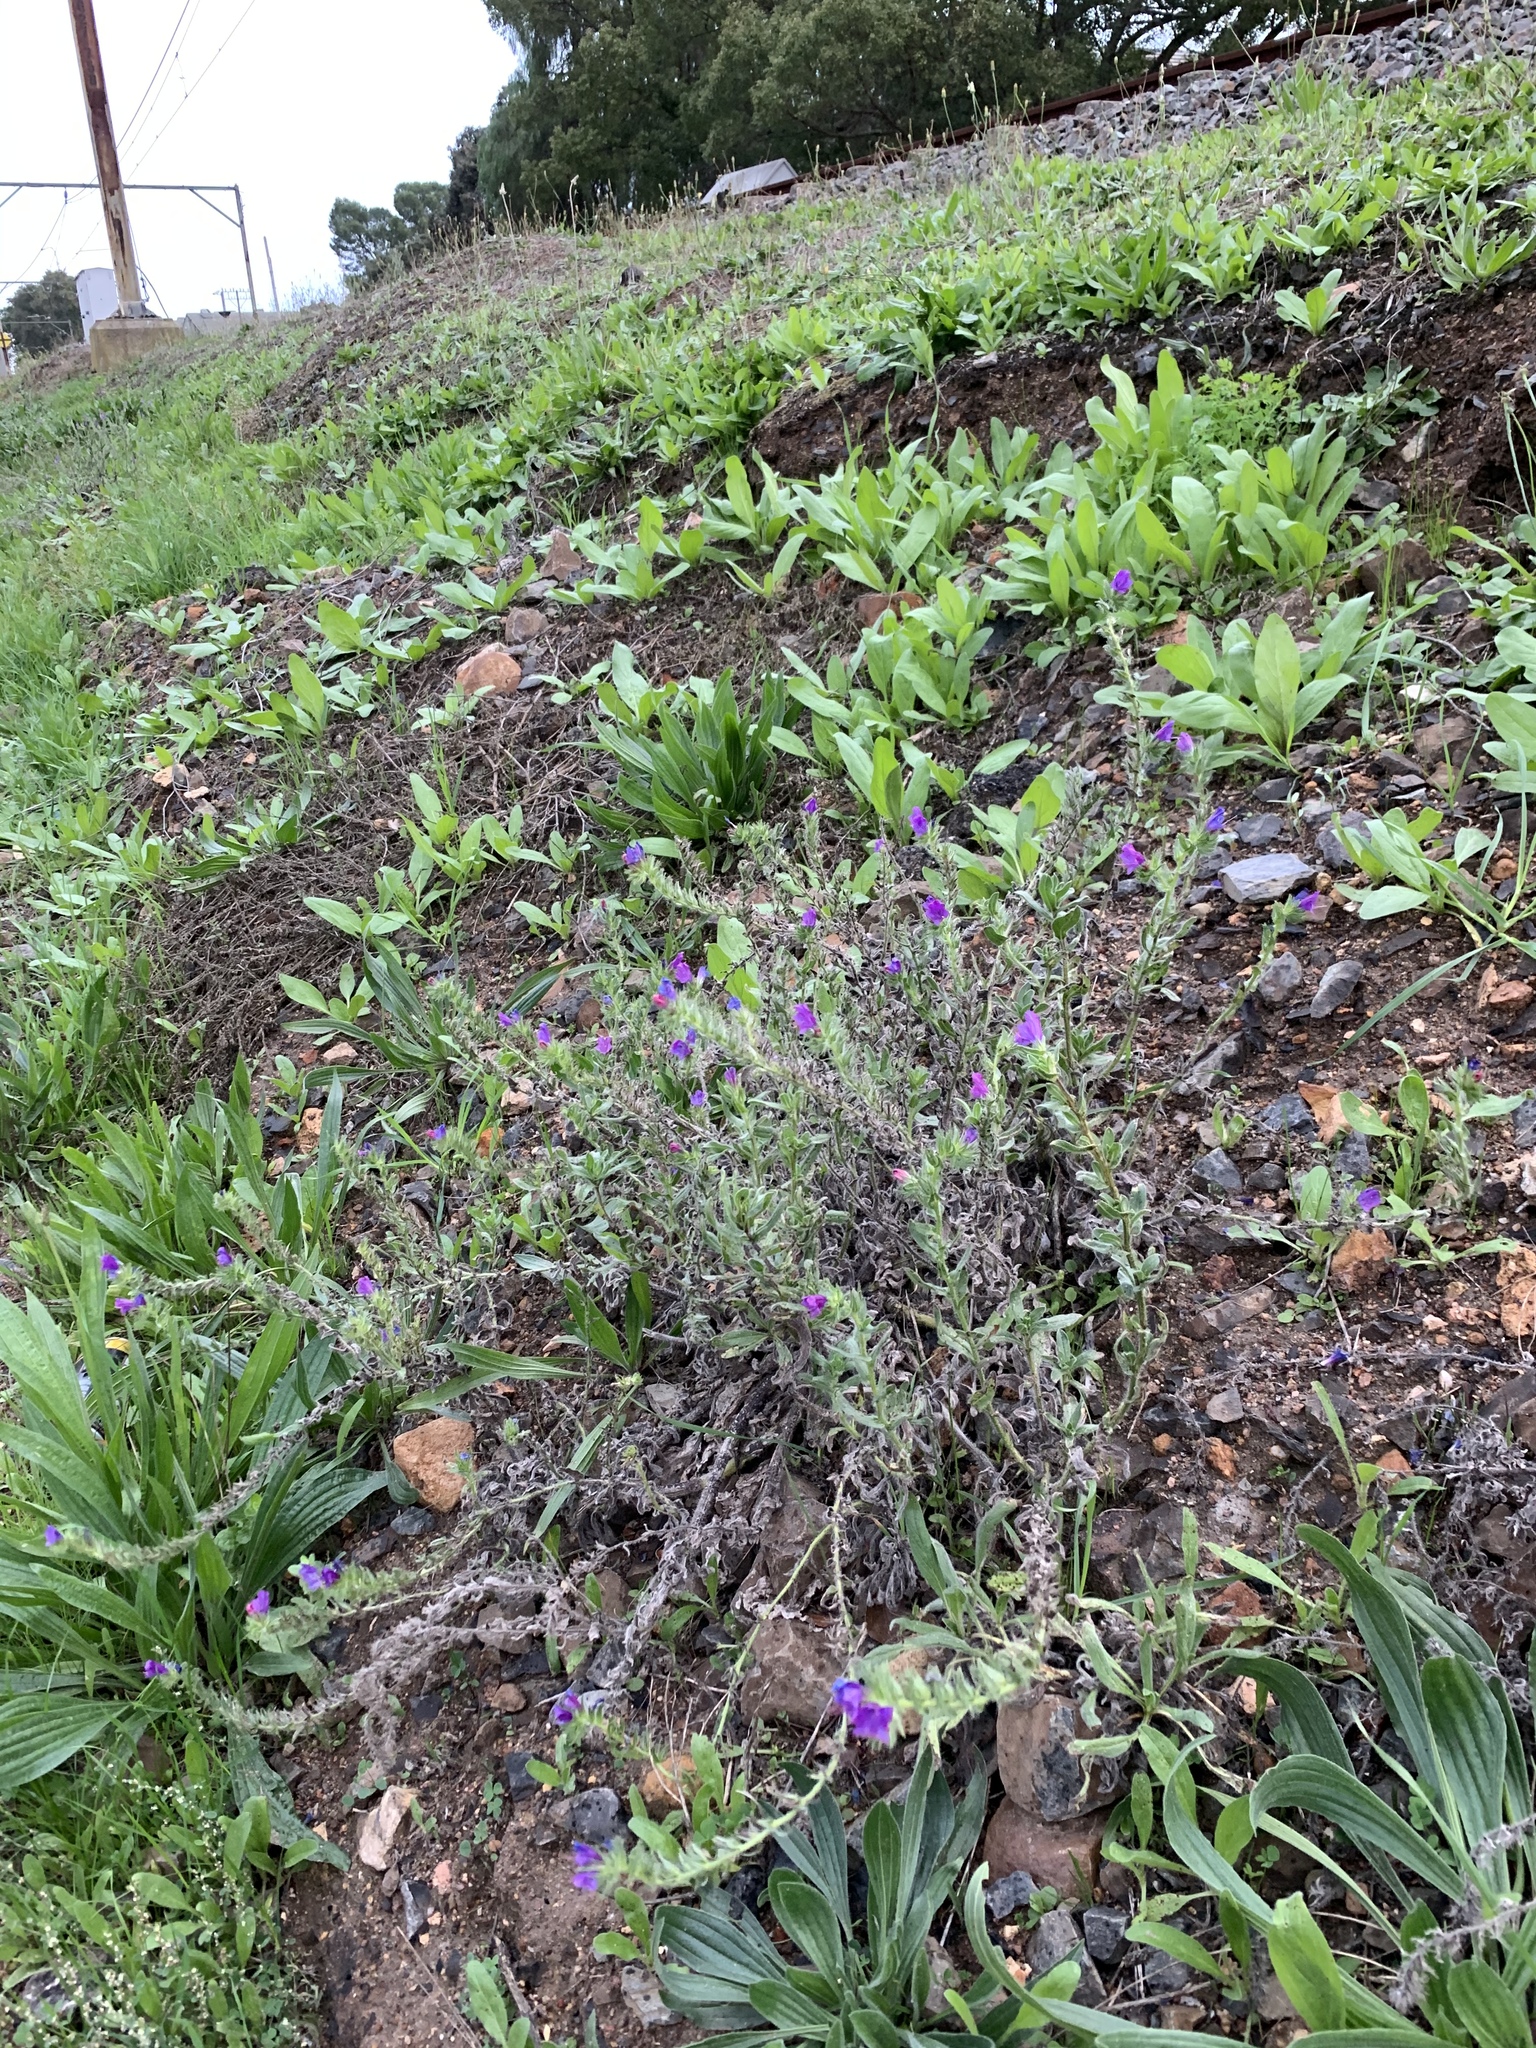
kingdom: Plantae
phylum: Tracheophyta
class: Magnoliopsida
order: Boraginales
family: Boraginaceae
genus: Echium
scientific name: Echium plantagineum
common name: Purple viper's-bugloss
